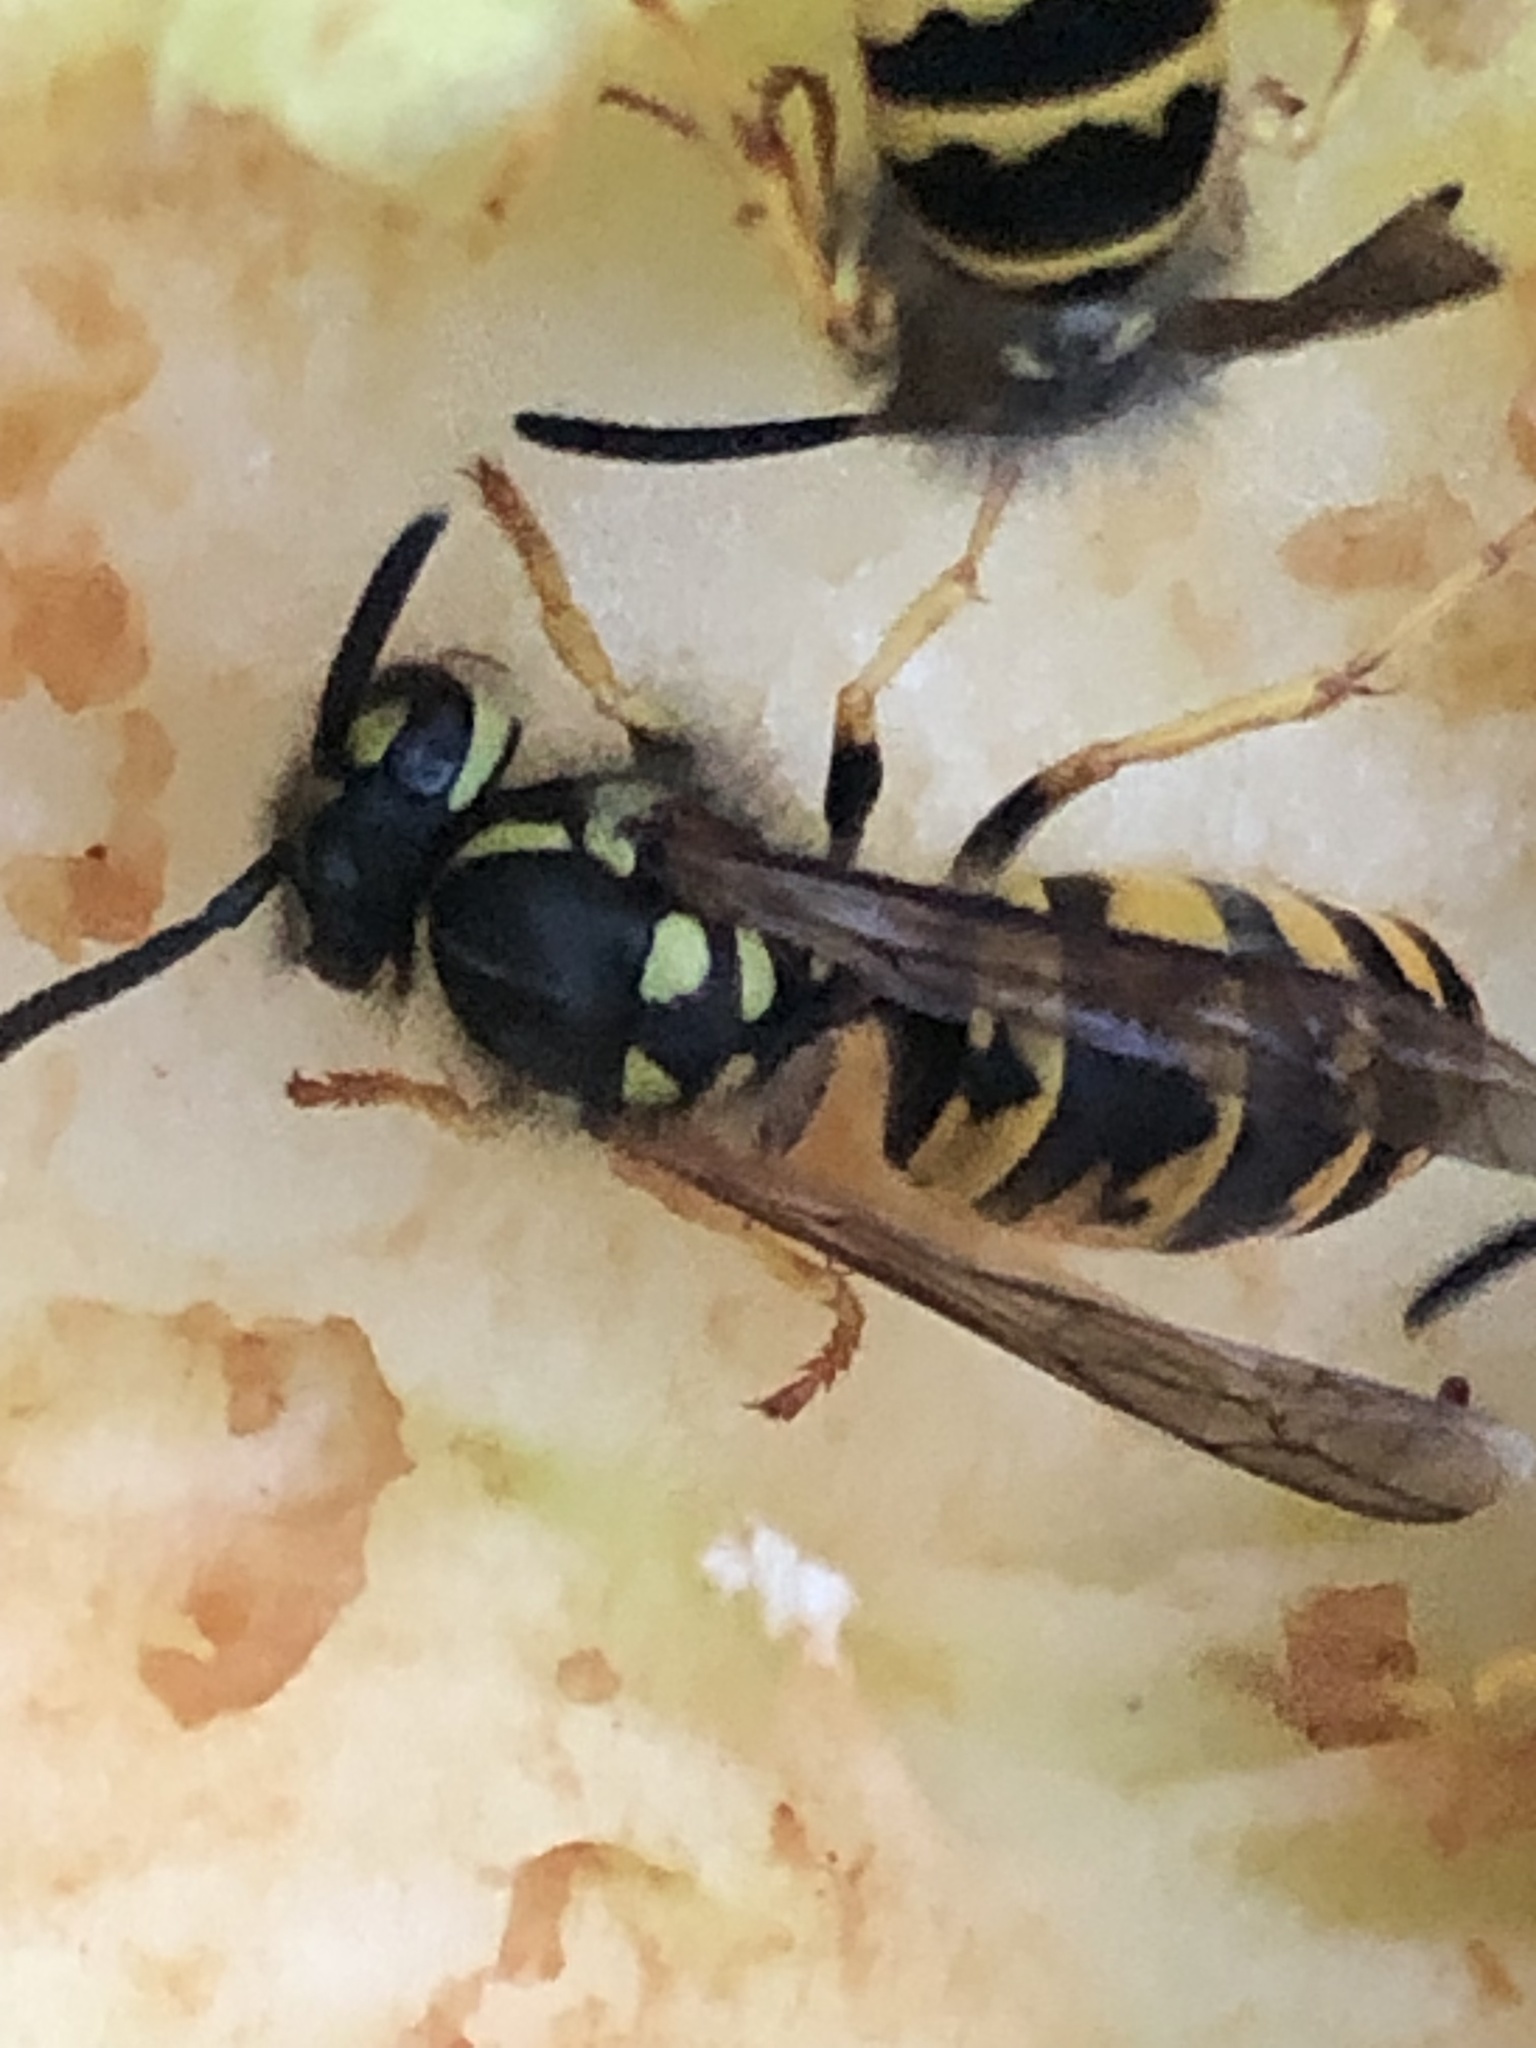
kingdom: Animalia
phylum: Arthropoda
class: Insecta
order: Hymenoptera
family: Vespidae
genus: Vespula
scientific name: Vespula germanica
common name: German wasp
